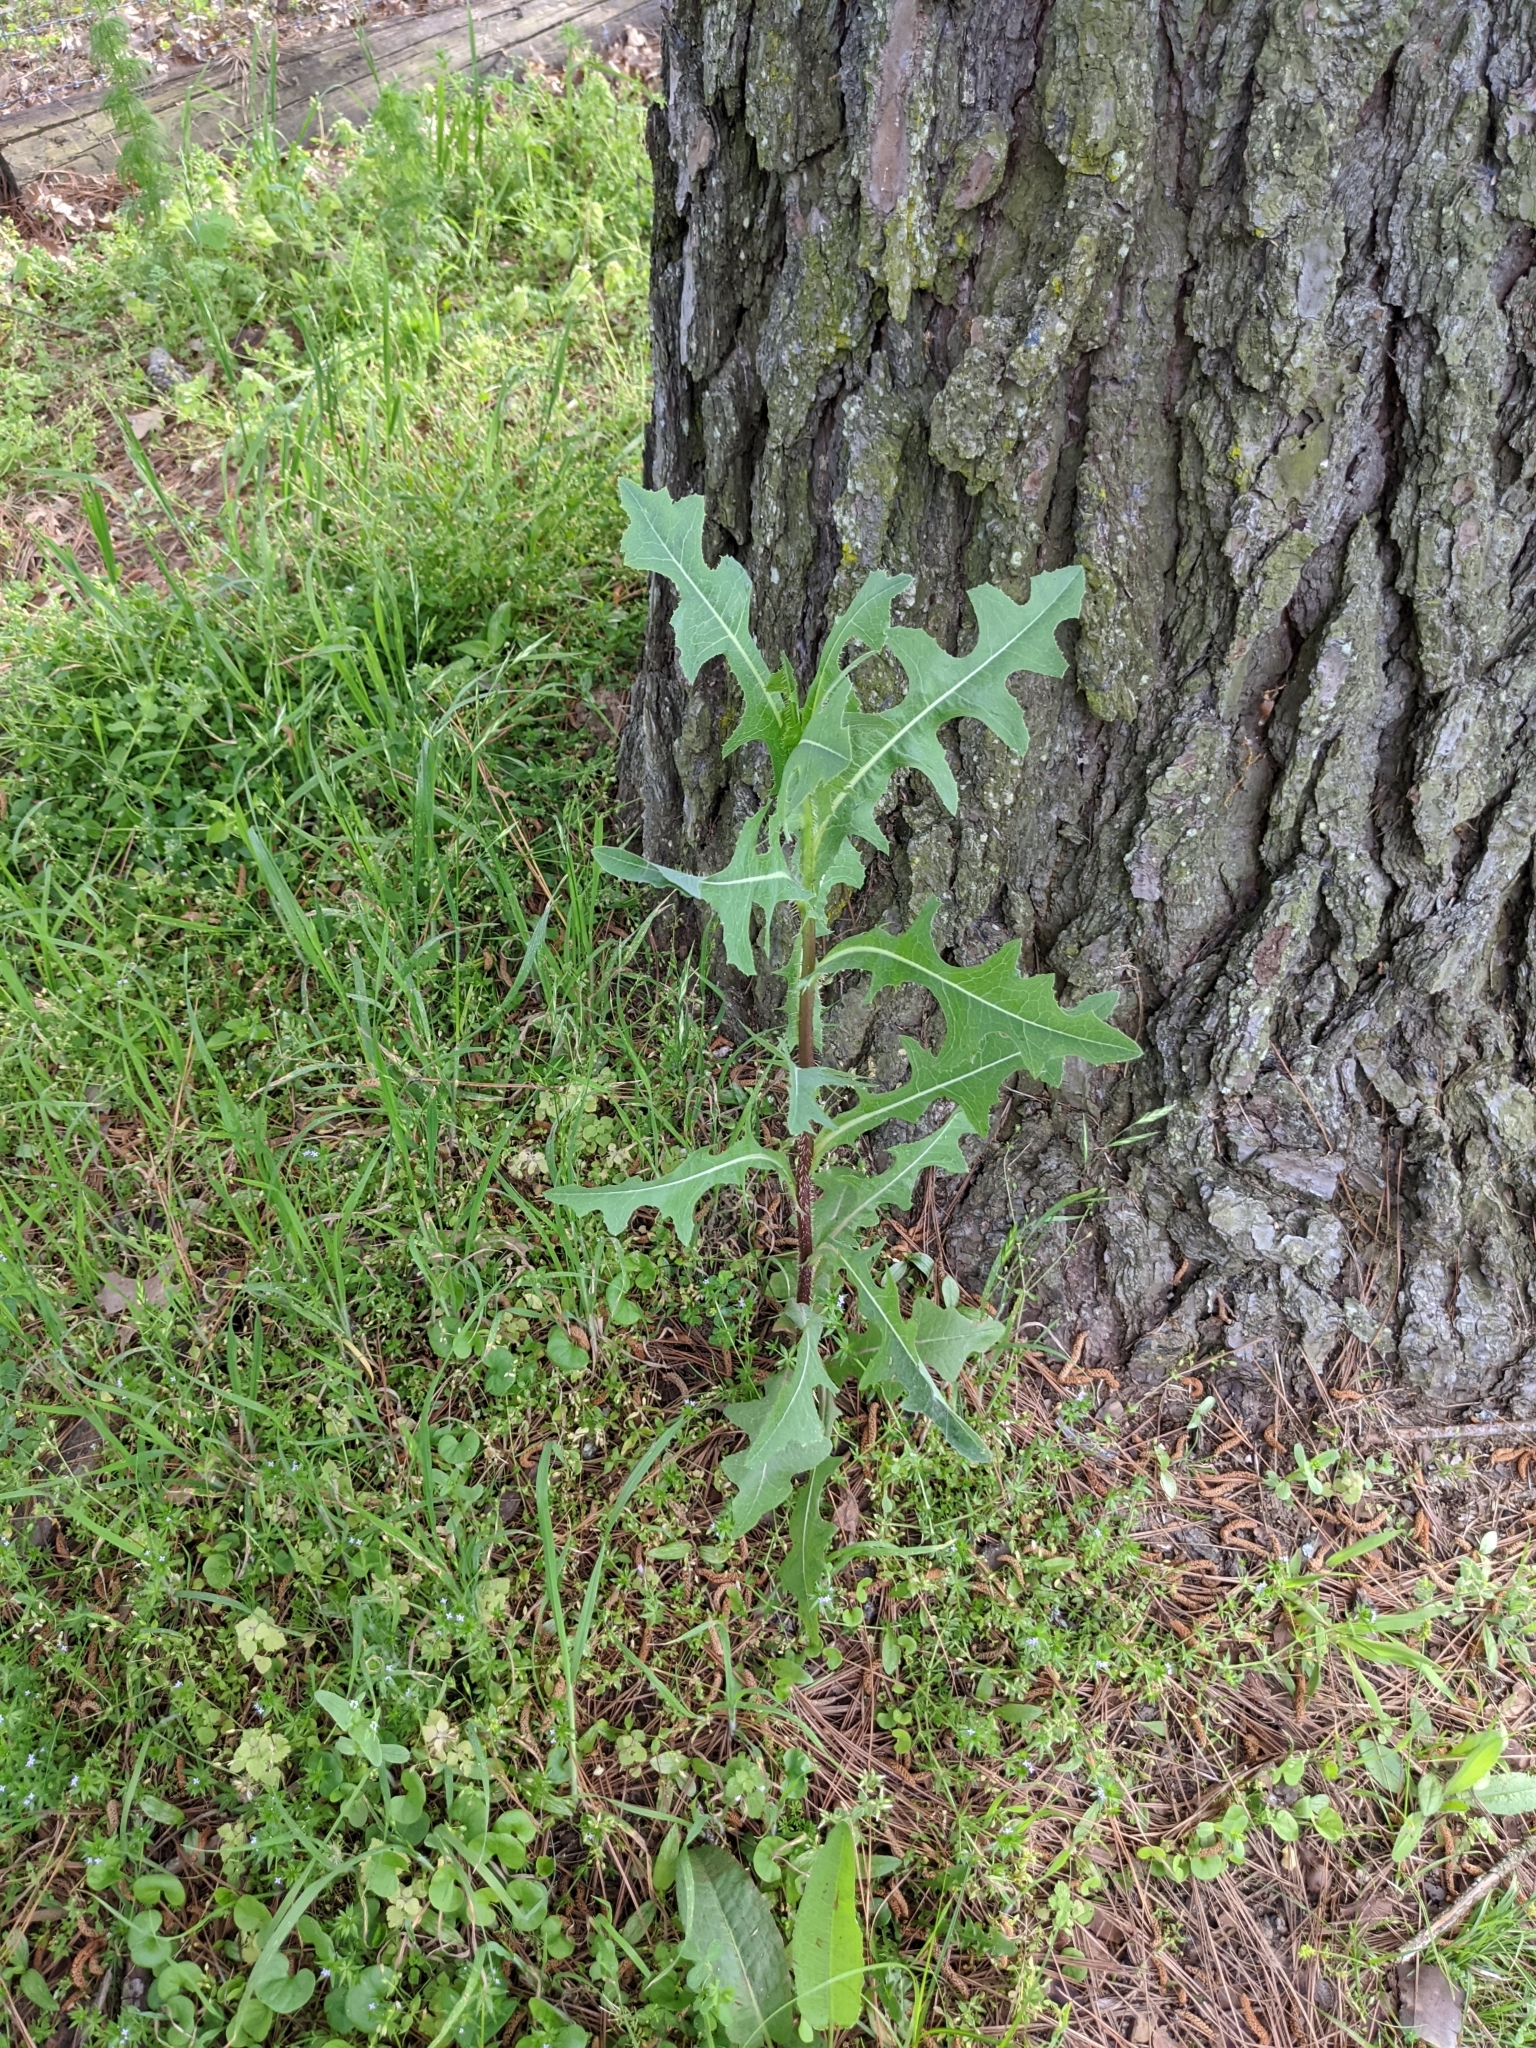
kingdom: Plantae
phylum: Tracheophyta
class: Magnoliopsida
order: Asterales
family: Asteraceae
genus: Lactuca
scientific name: Lactuca serriola
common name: Prickly lettuce
